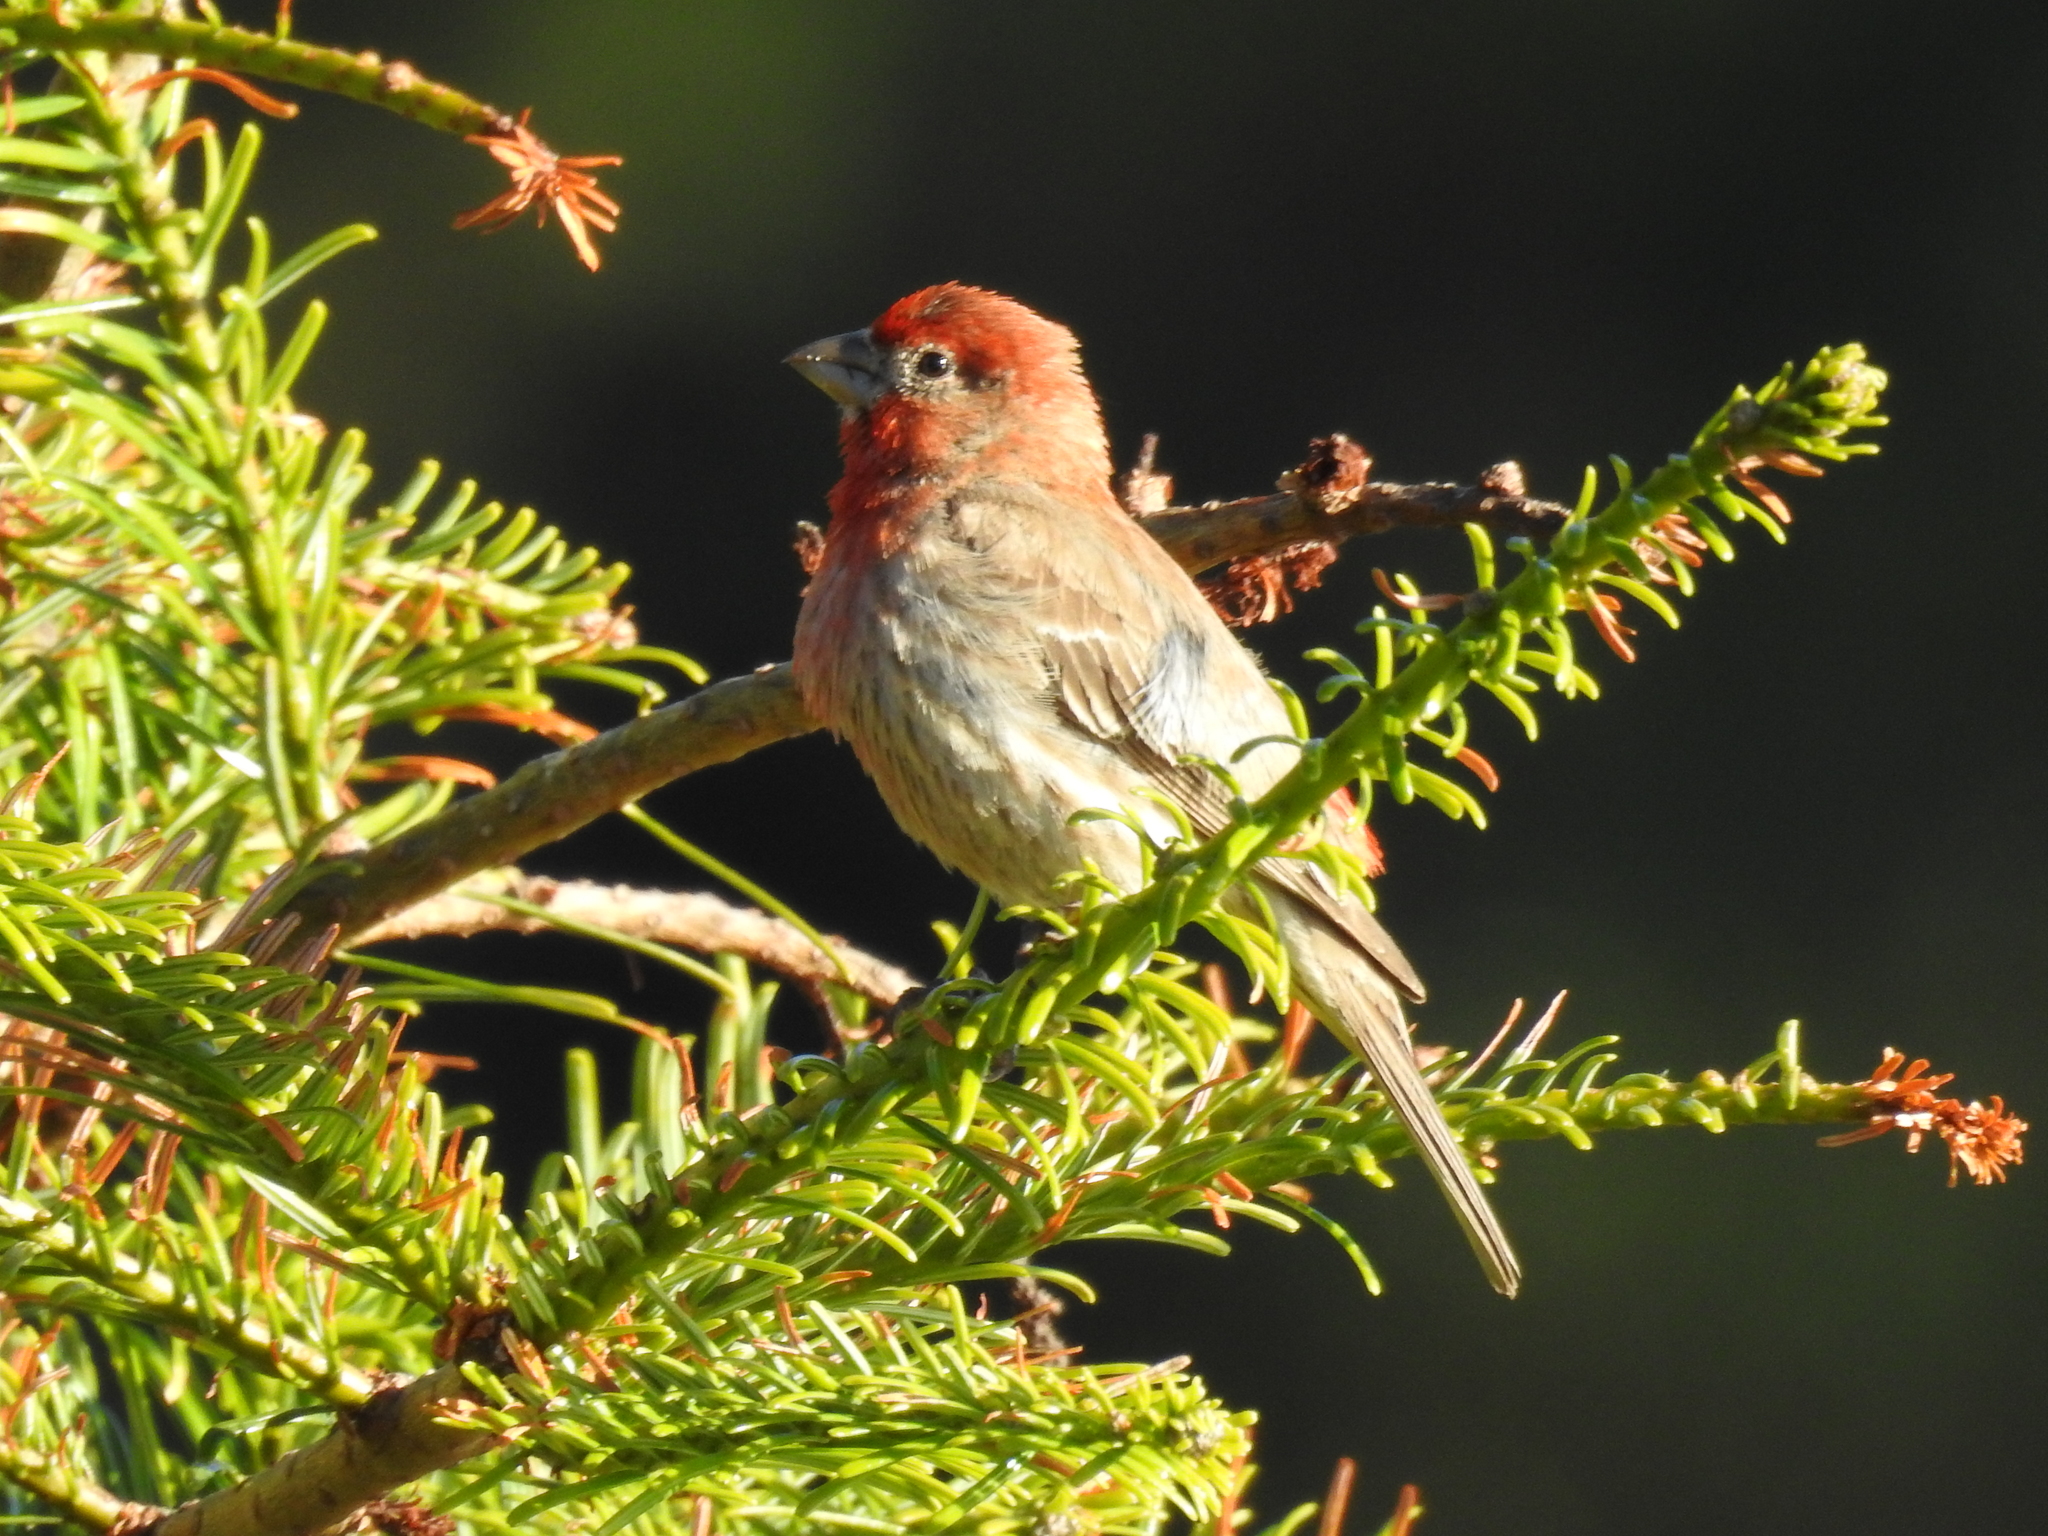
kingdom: Animalia
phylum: Chordata
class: Aves
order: Passeriformes
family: Fringillidae
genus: Haemorhous
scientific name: Haemorhous mexicanus
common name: House finch
